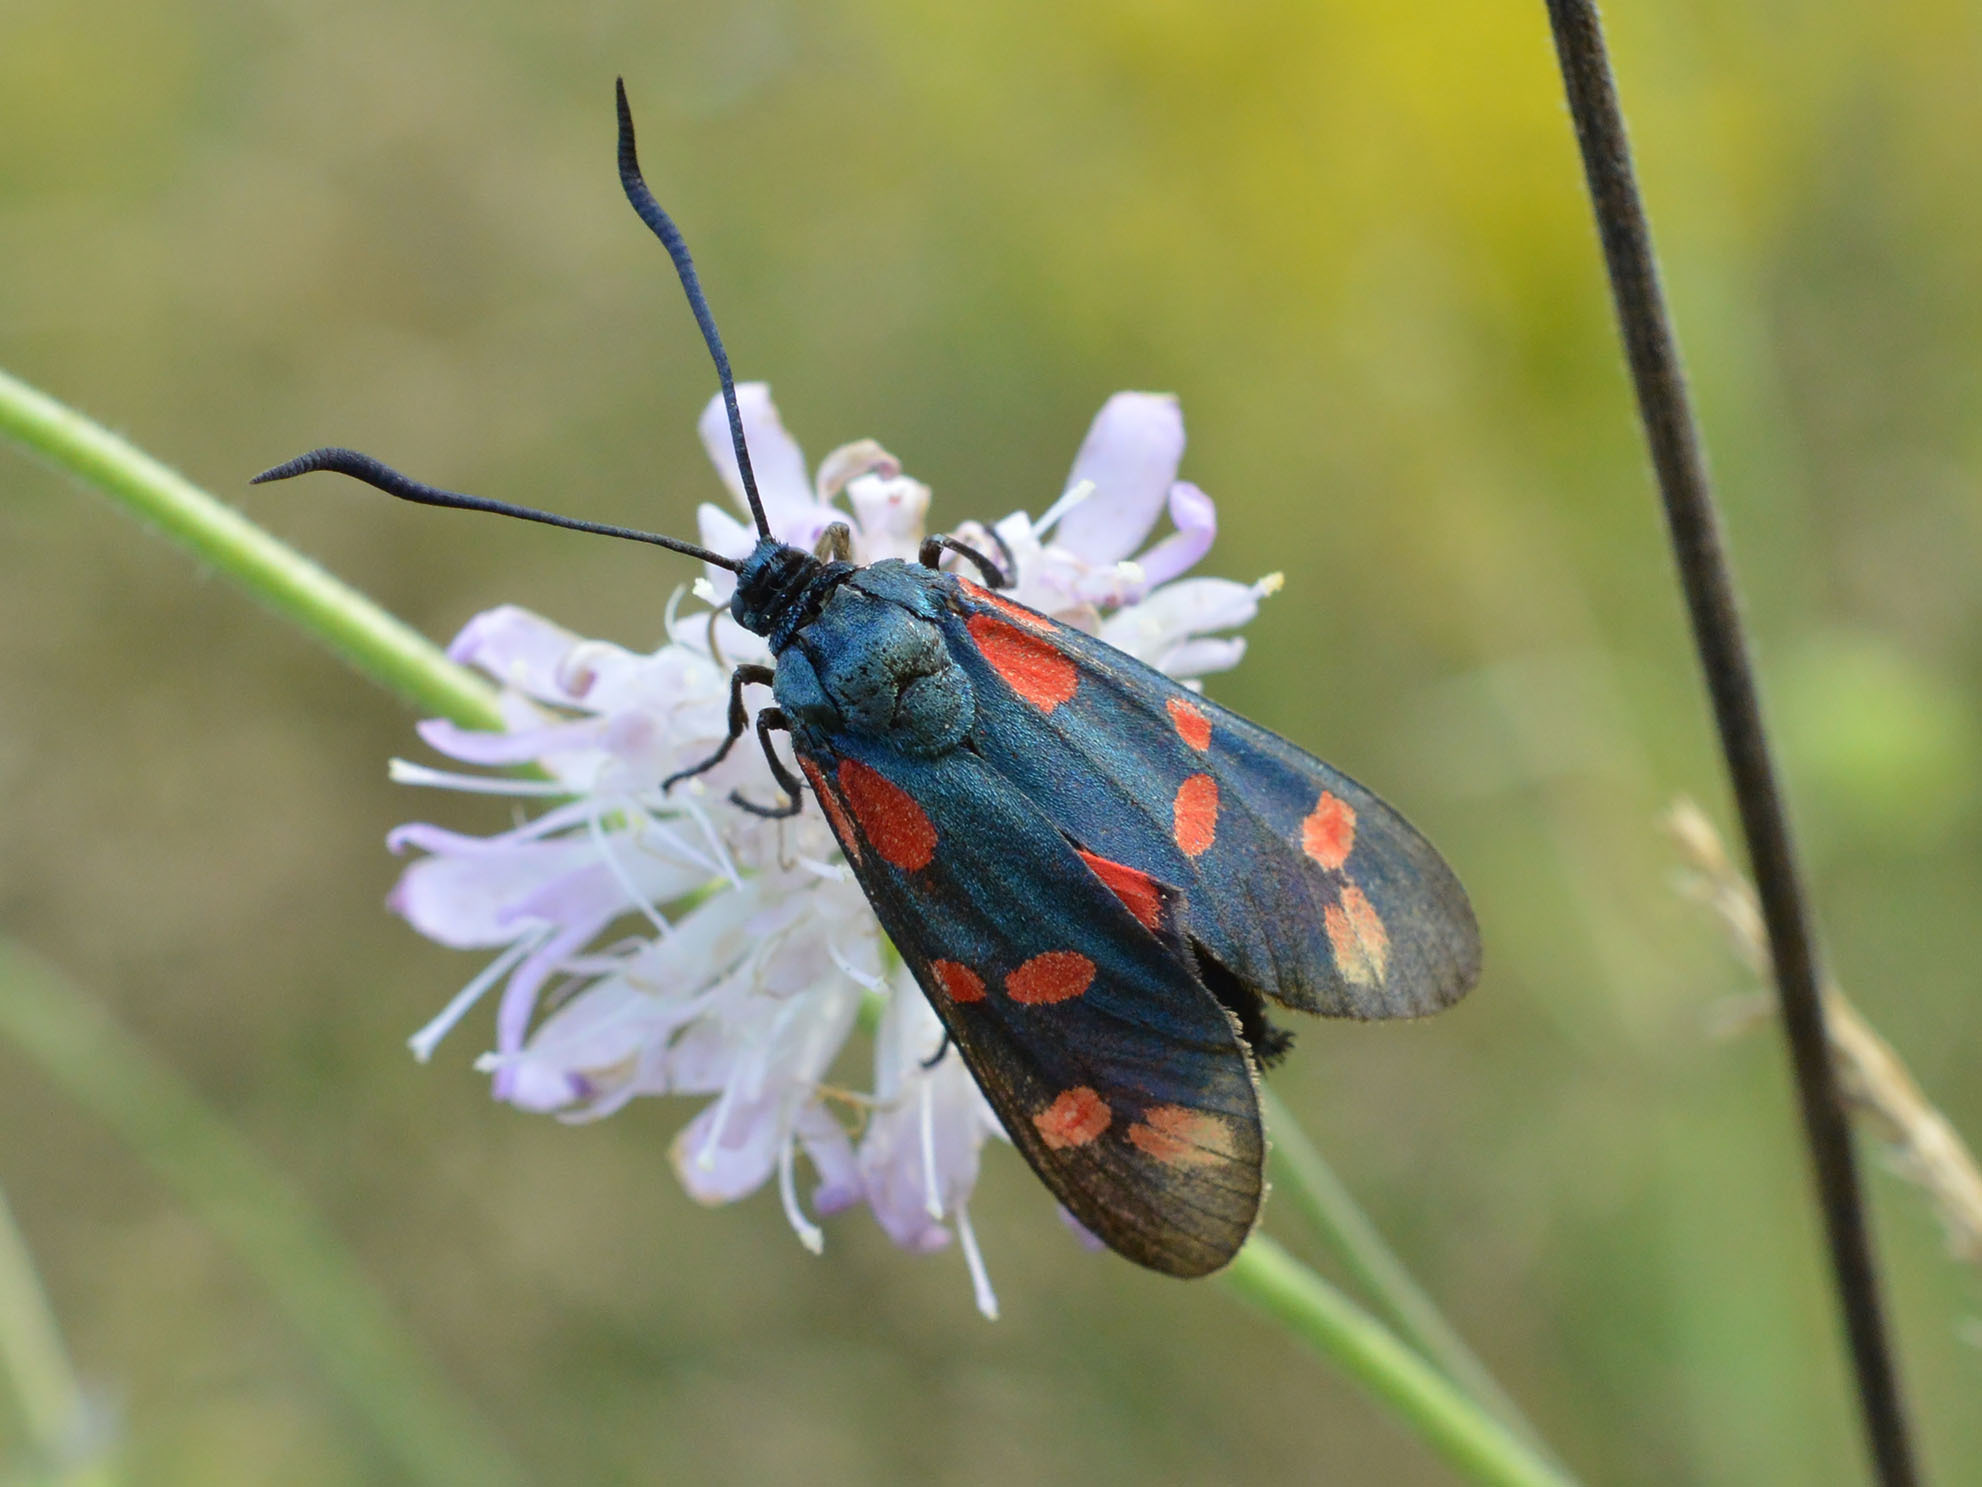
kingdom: Animalia
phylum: Arthropoda
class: Insecta
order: Lepidoptera
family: Zygaenidae
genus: Zygaena
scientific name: Zygaena filipendulae
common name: Six-spot burnet
